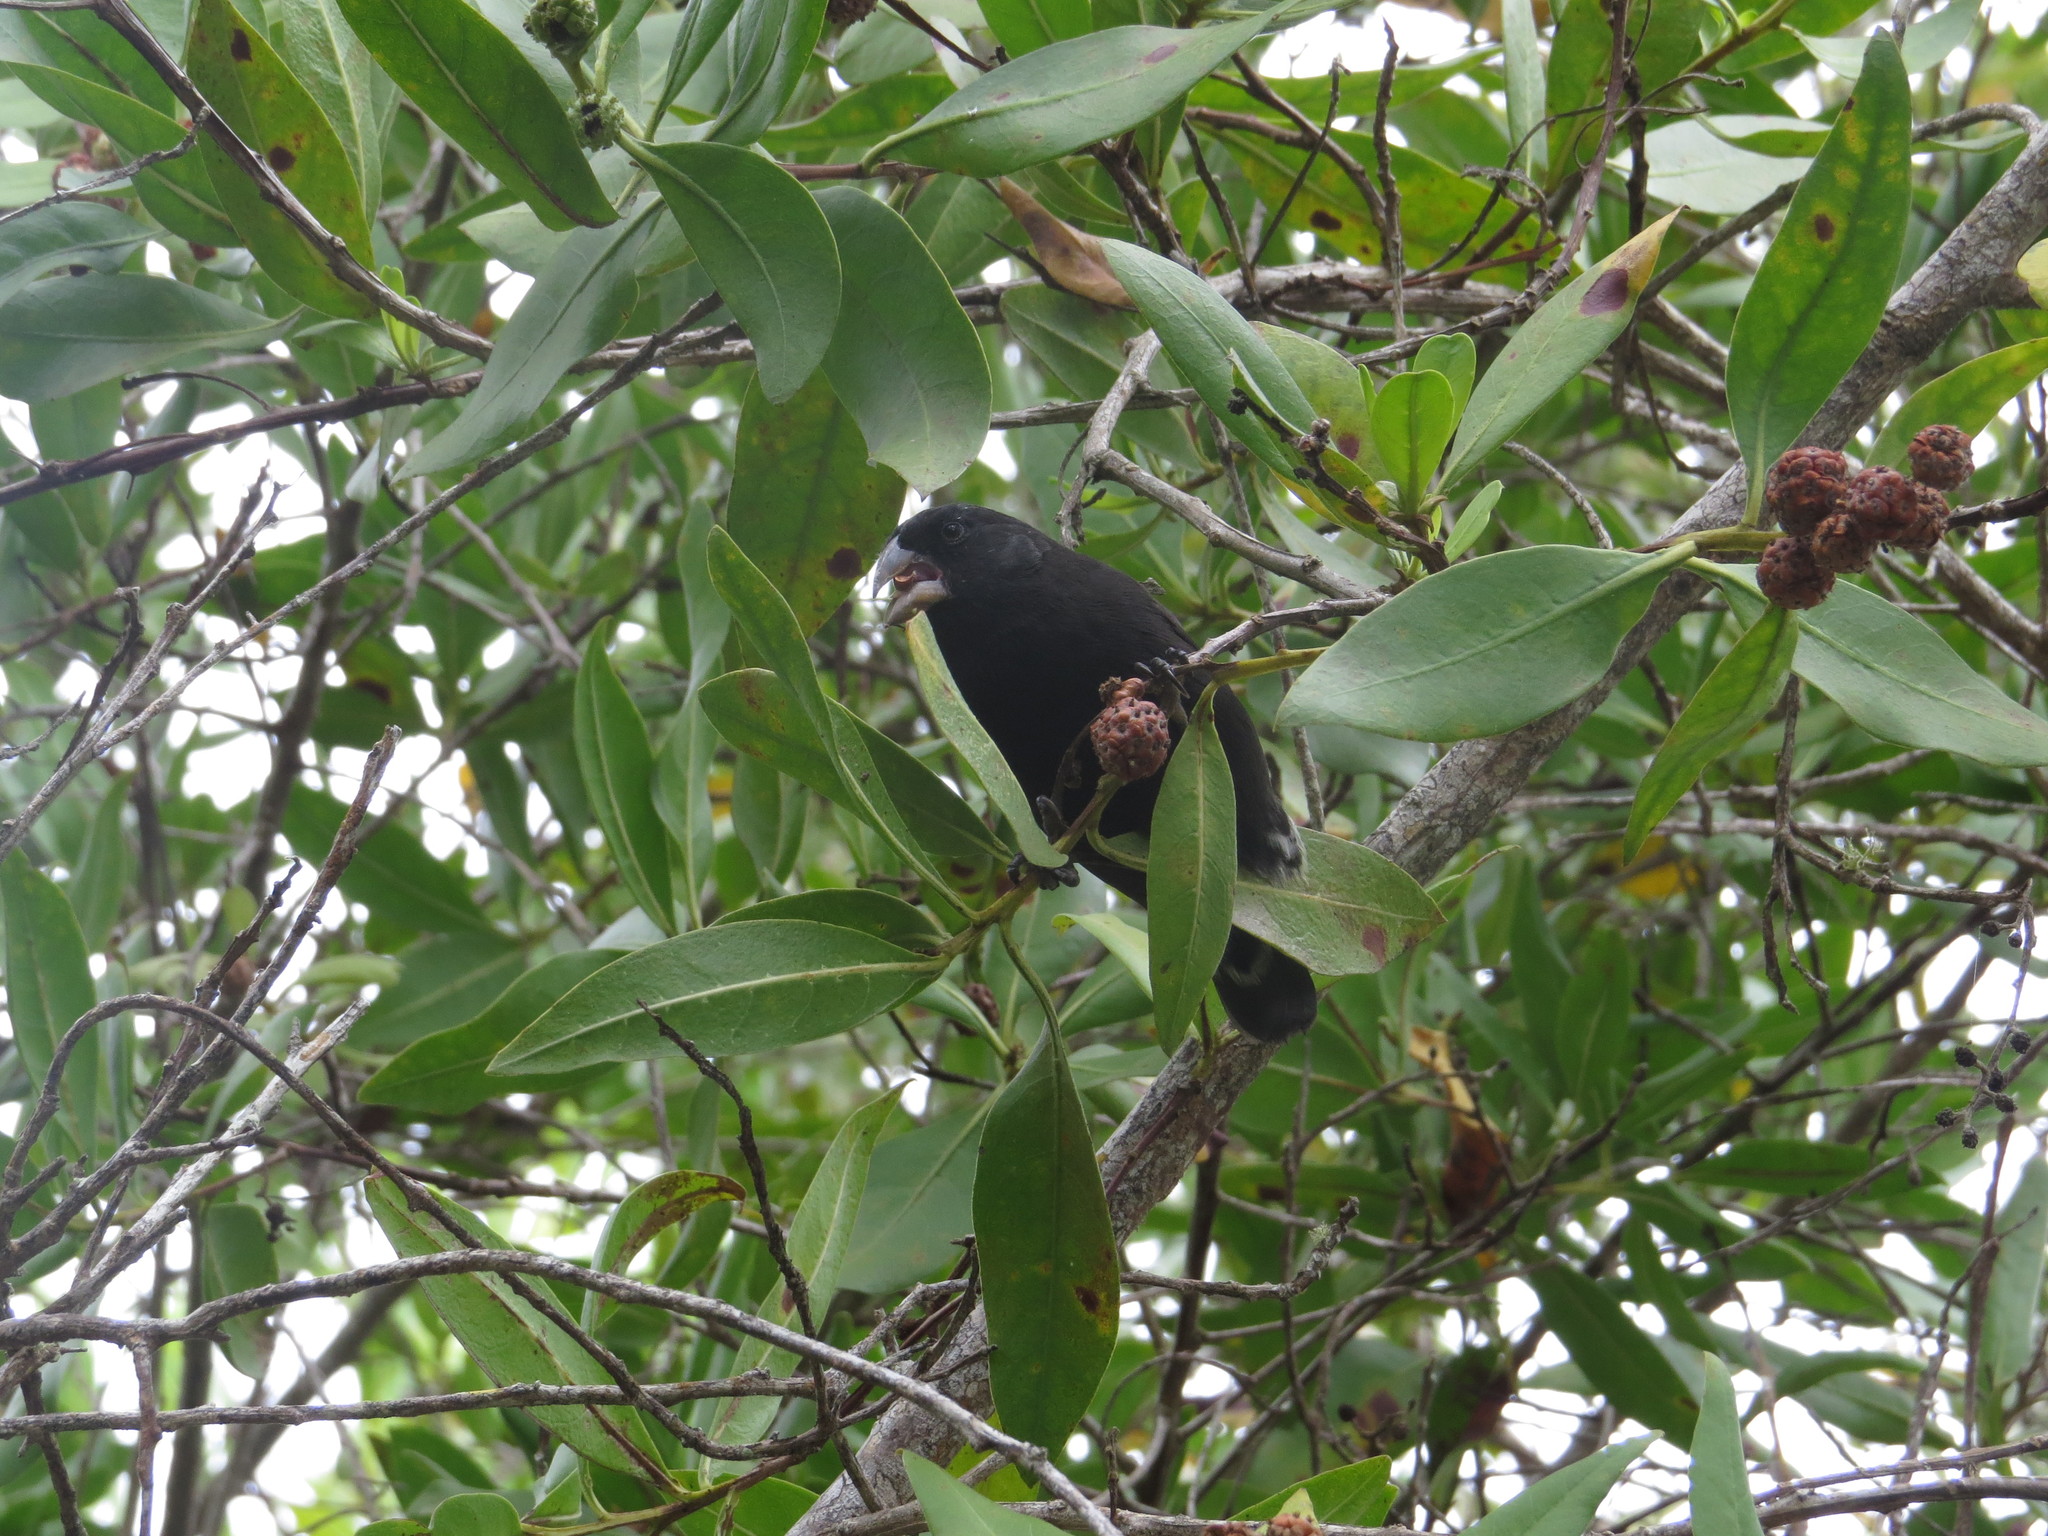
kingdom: Animalia
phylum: Chordata
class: Aves
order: Passeriformes
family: Thraupidae
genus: Geospiza
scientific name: Geospiza fortis
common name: Medium ground finch
